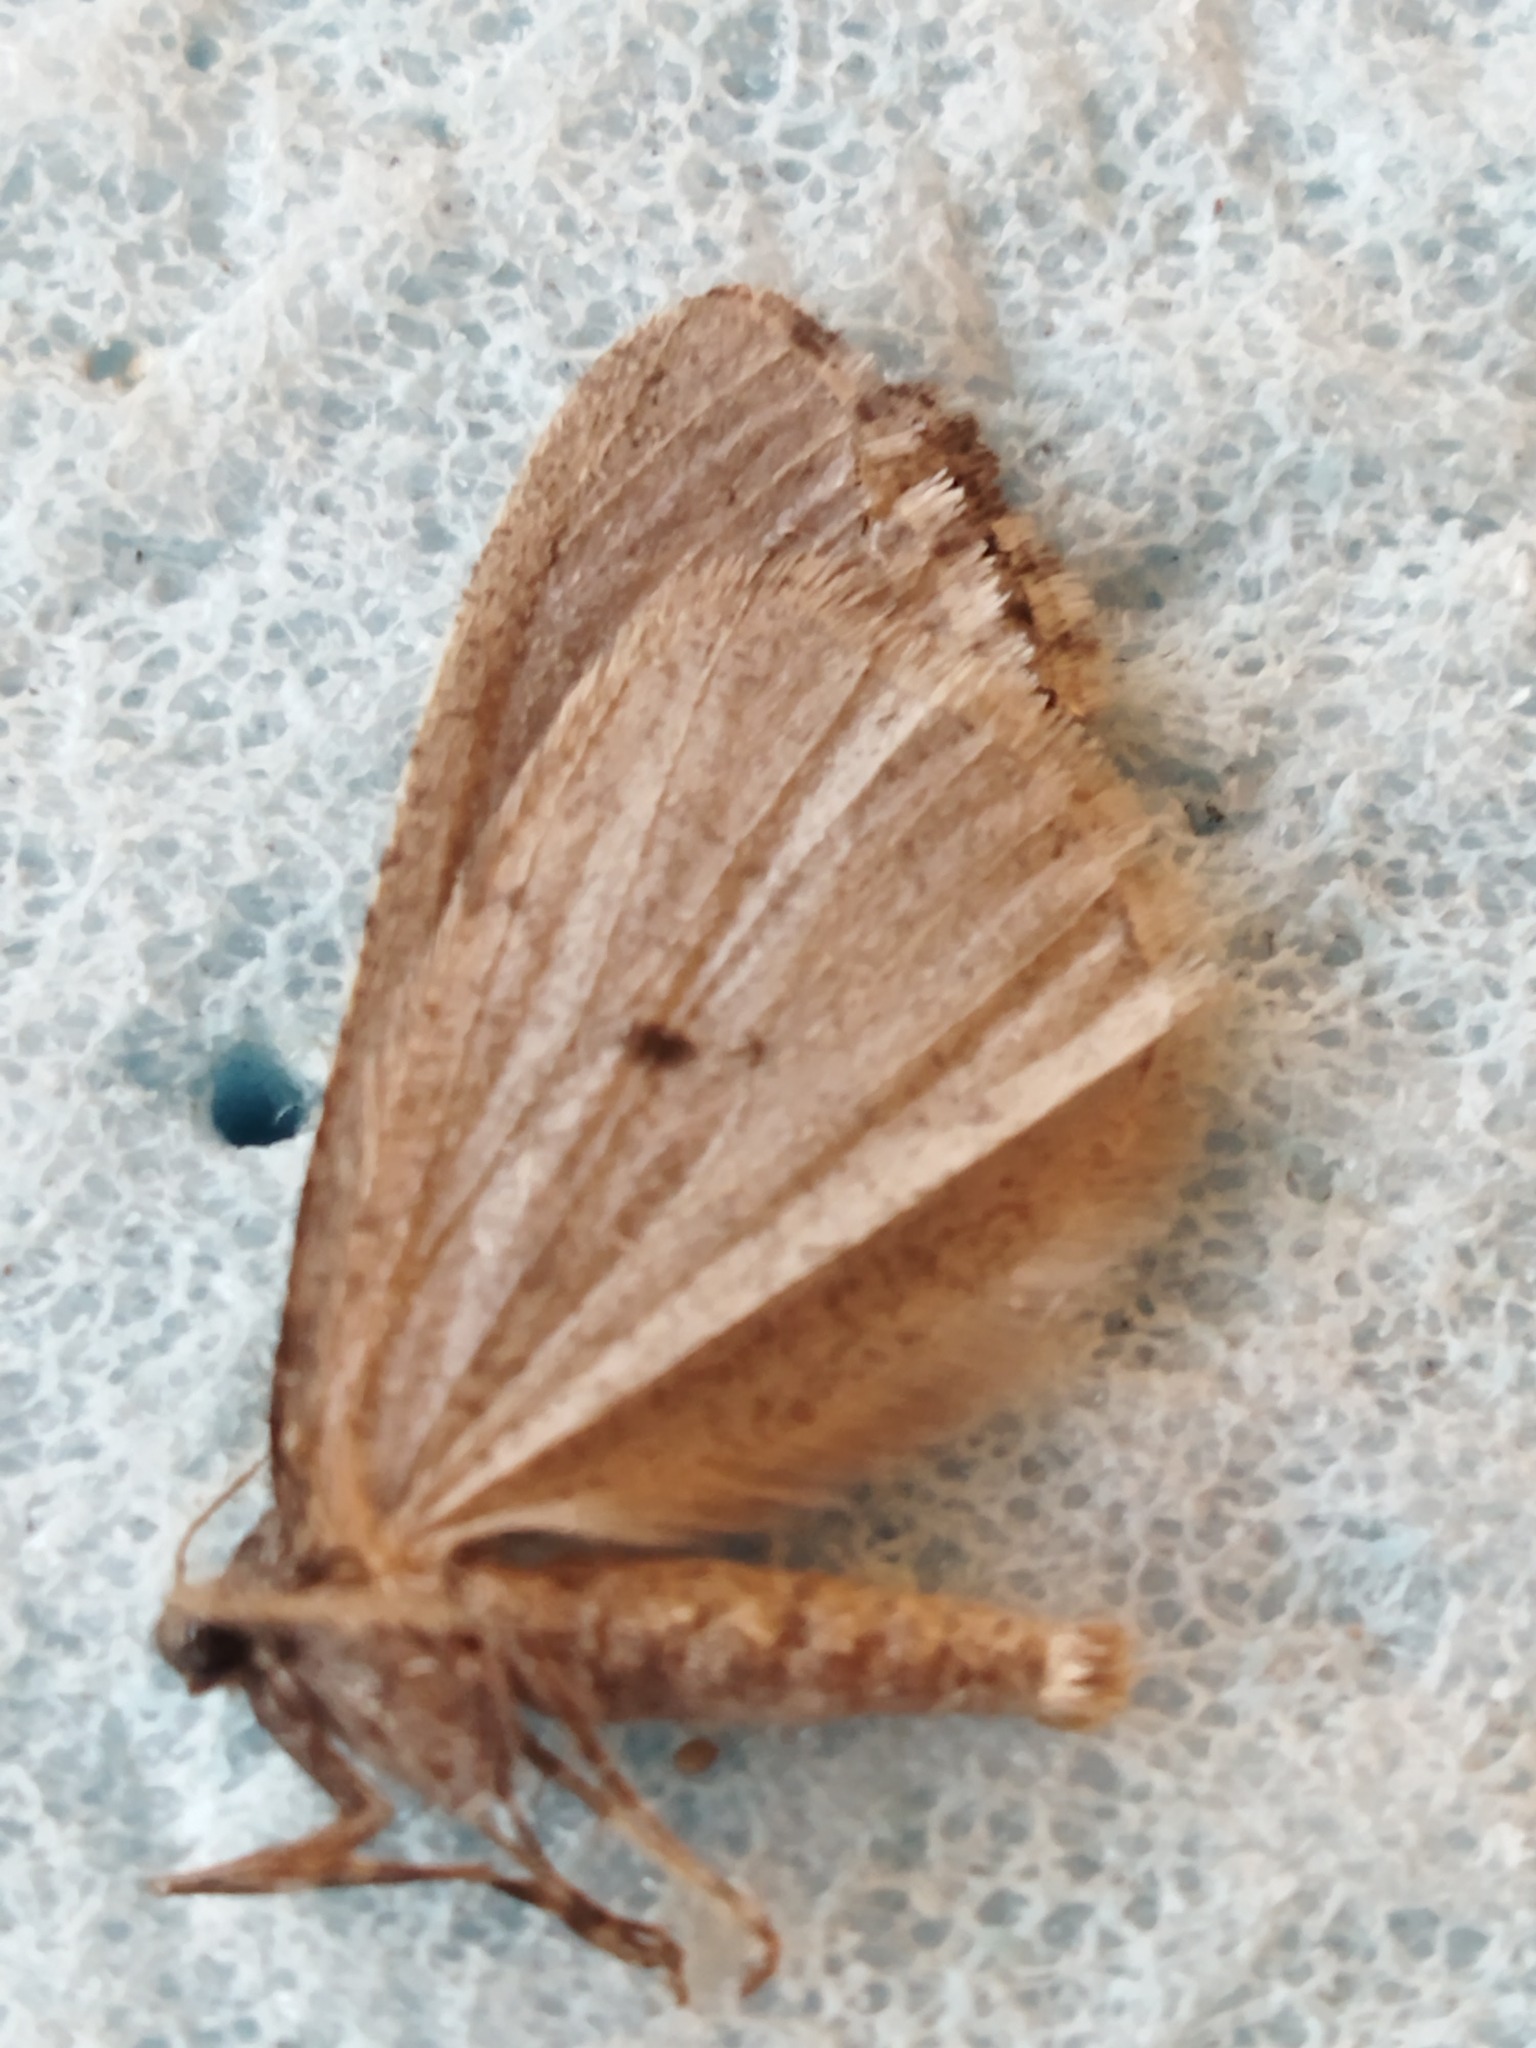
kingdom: Animalia
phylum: Arthropoda
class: Insecta
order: Lepidoptera
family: Geometridae
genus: Erannis
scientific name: Erannis declinans
